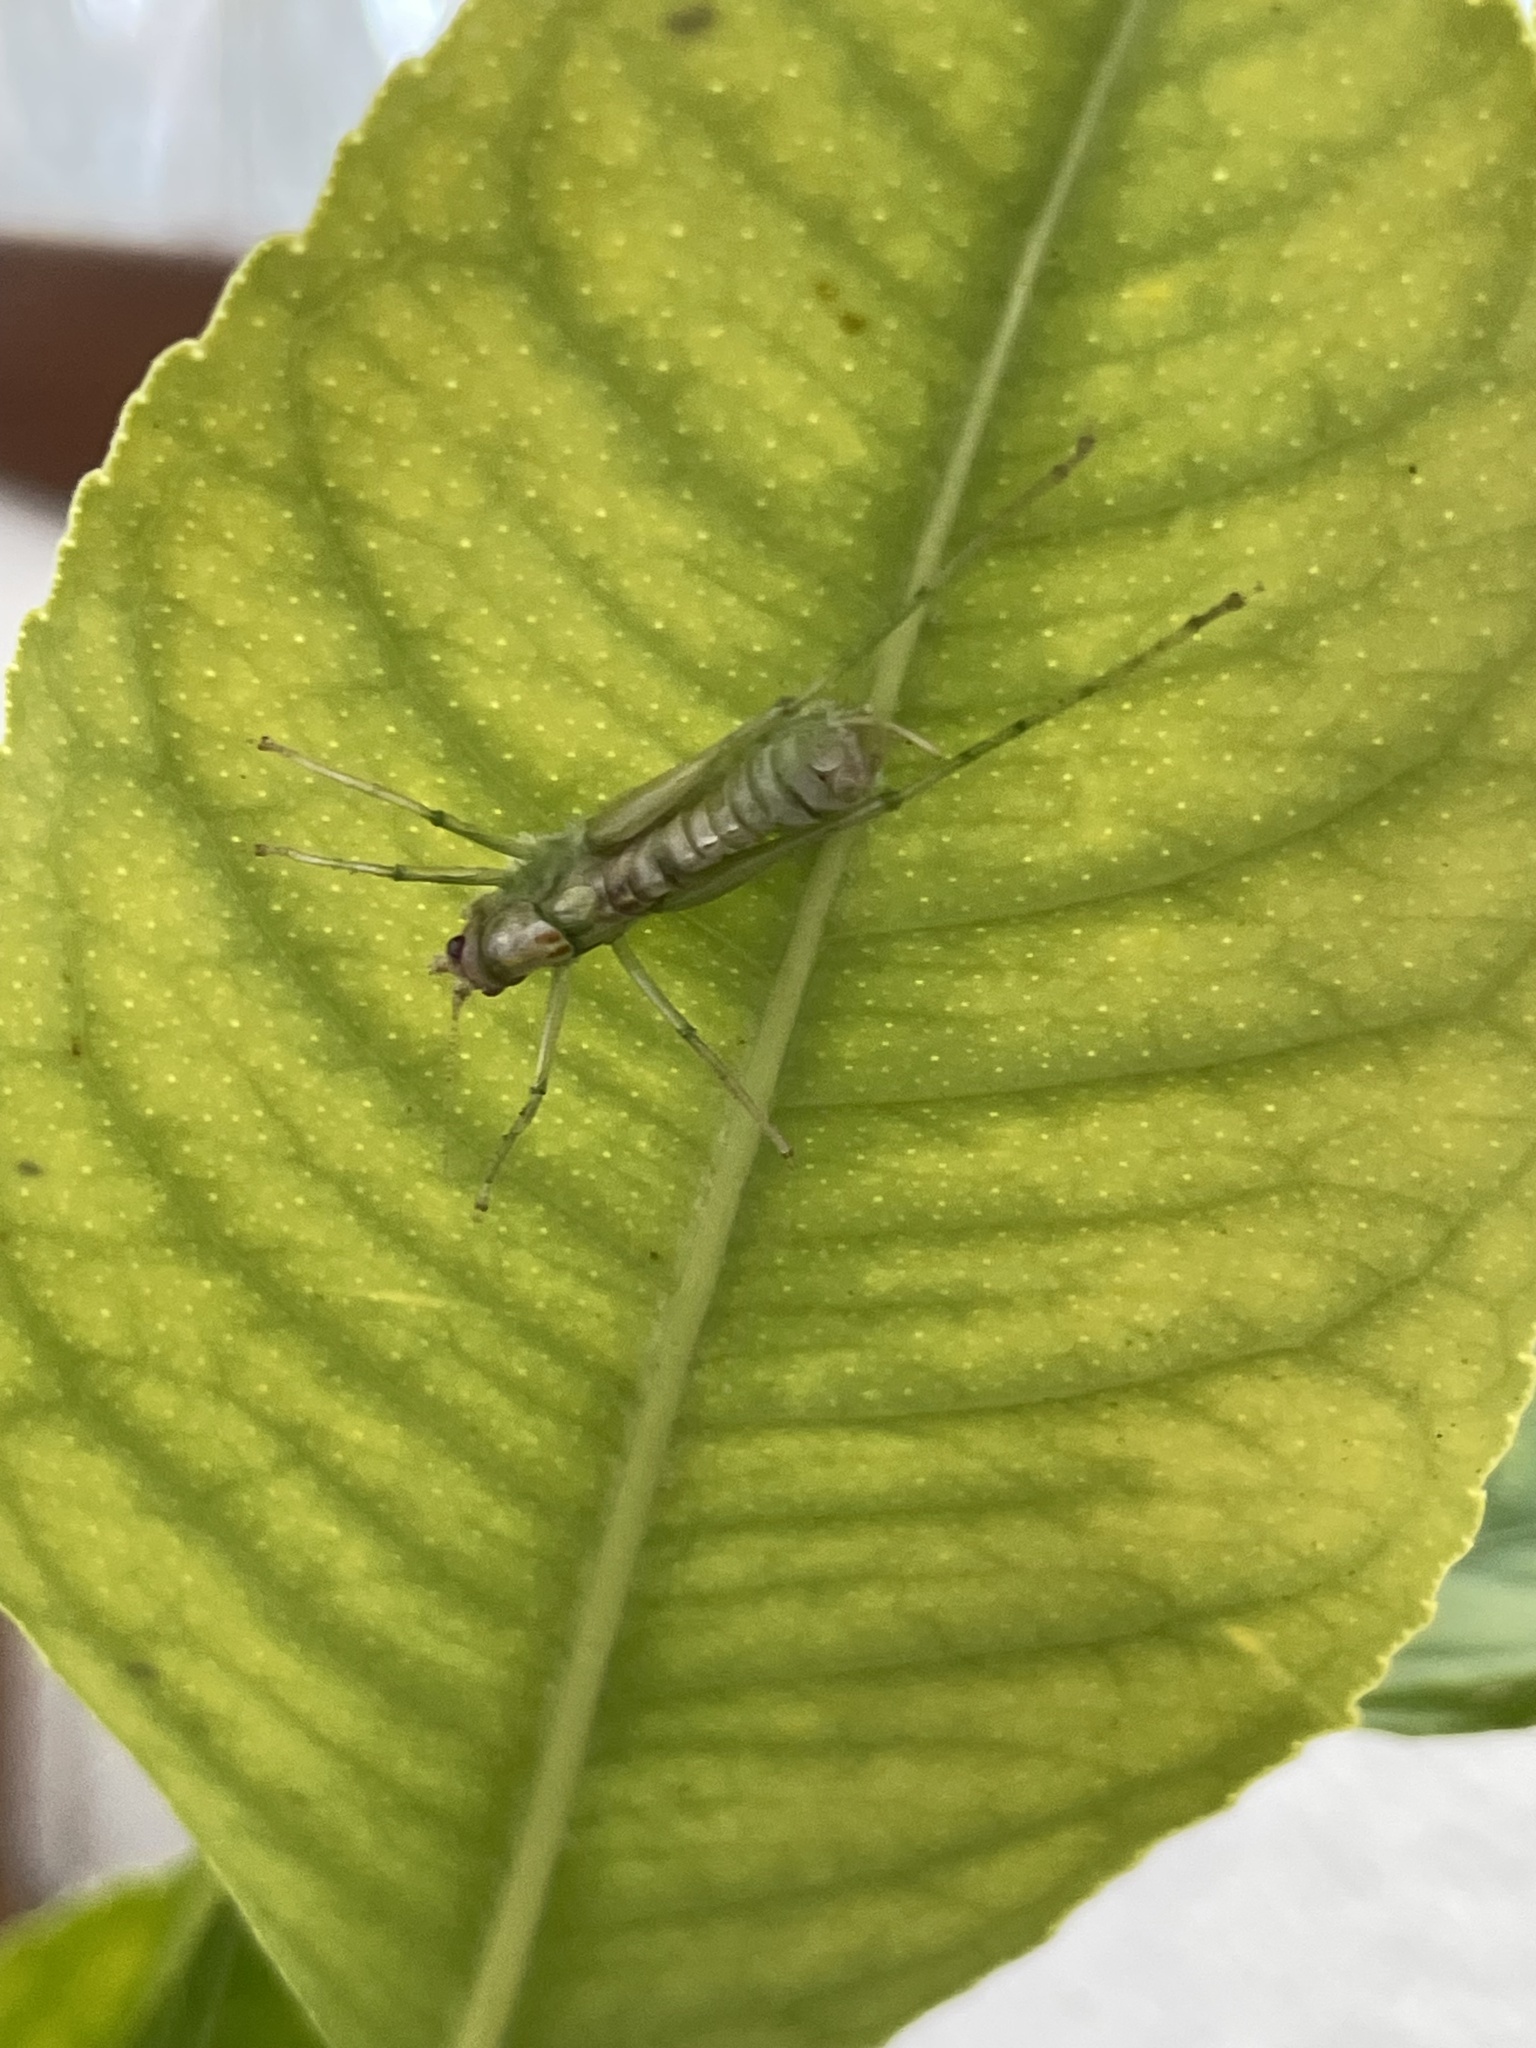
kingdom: Animalia
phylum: Arthropoda
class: Insecta
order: Orthoptera
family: Tettigoniidae
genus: Meconema
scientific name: Meconema meridionale
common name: Southern oak bush-cricket
